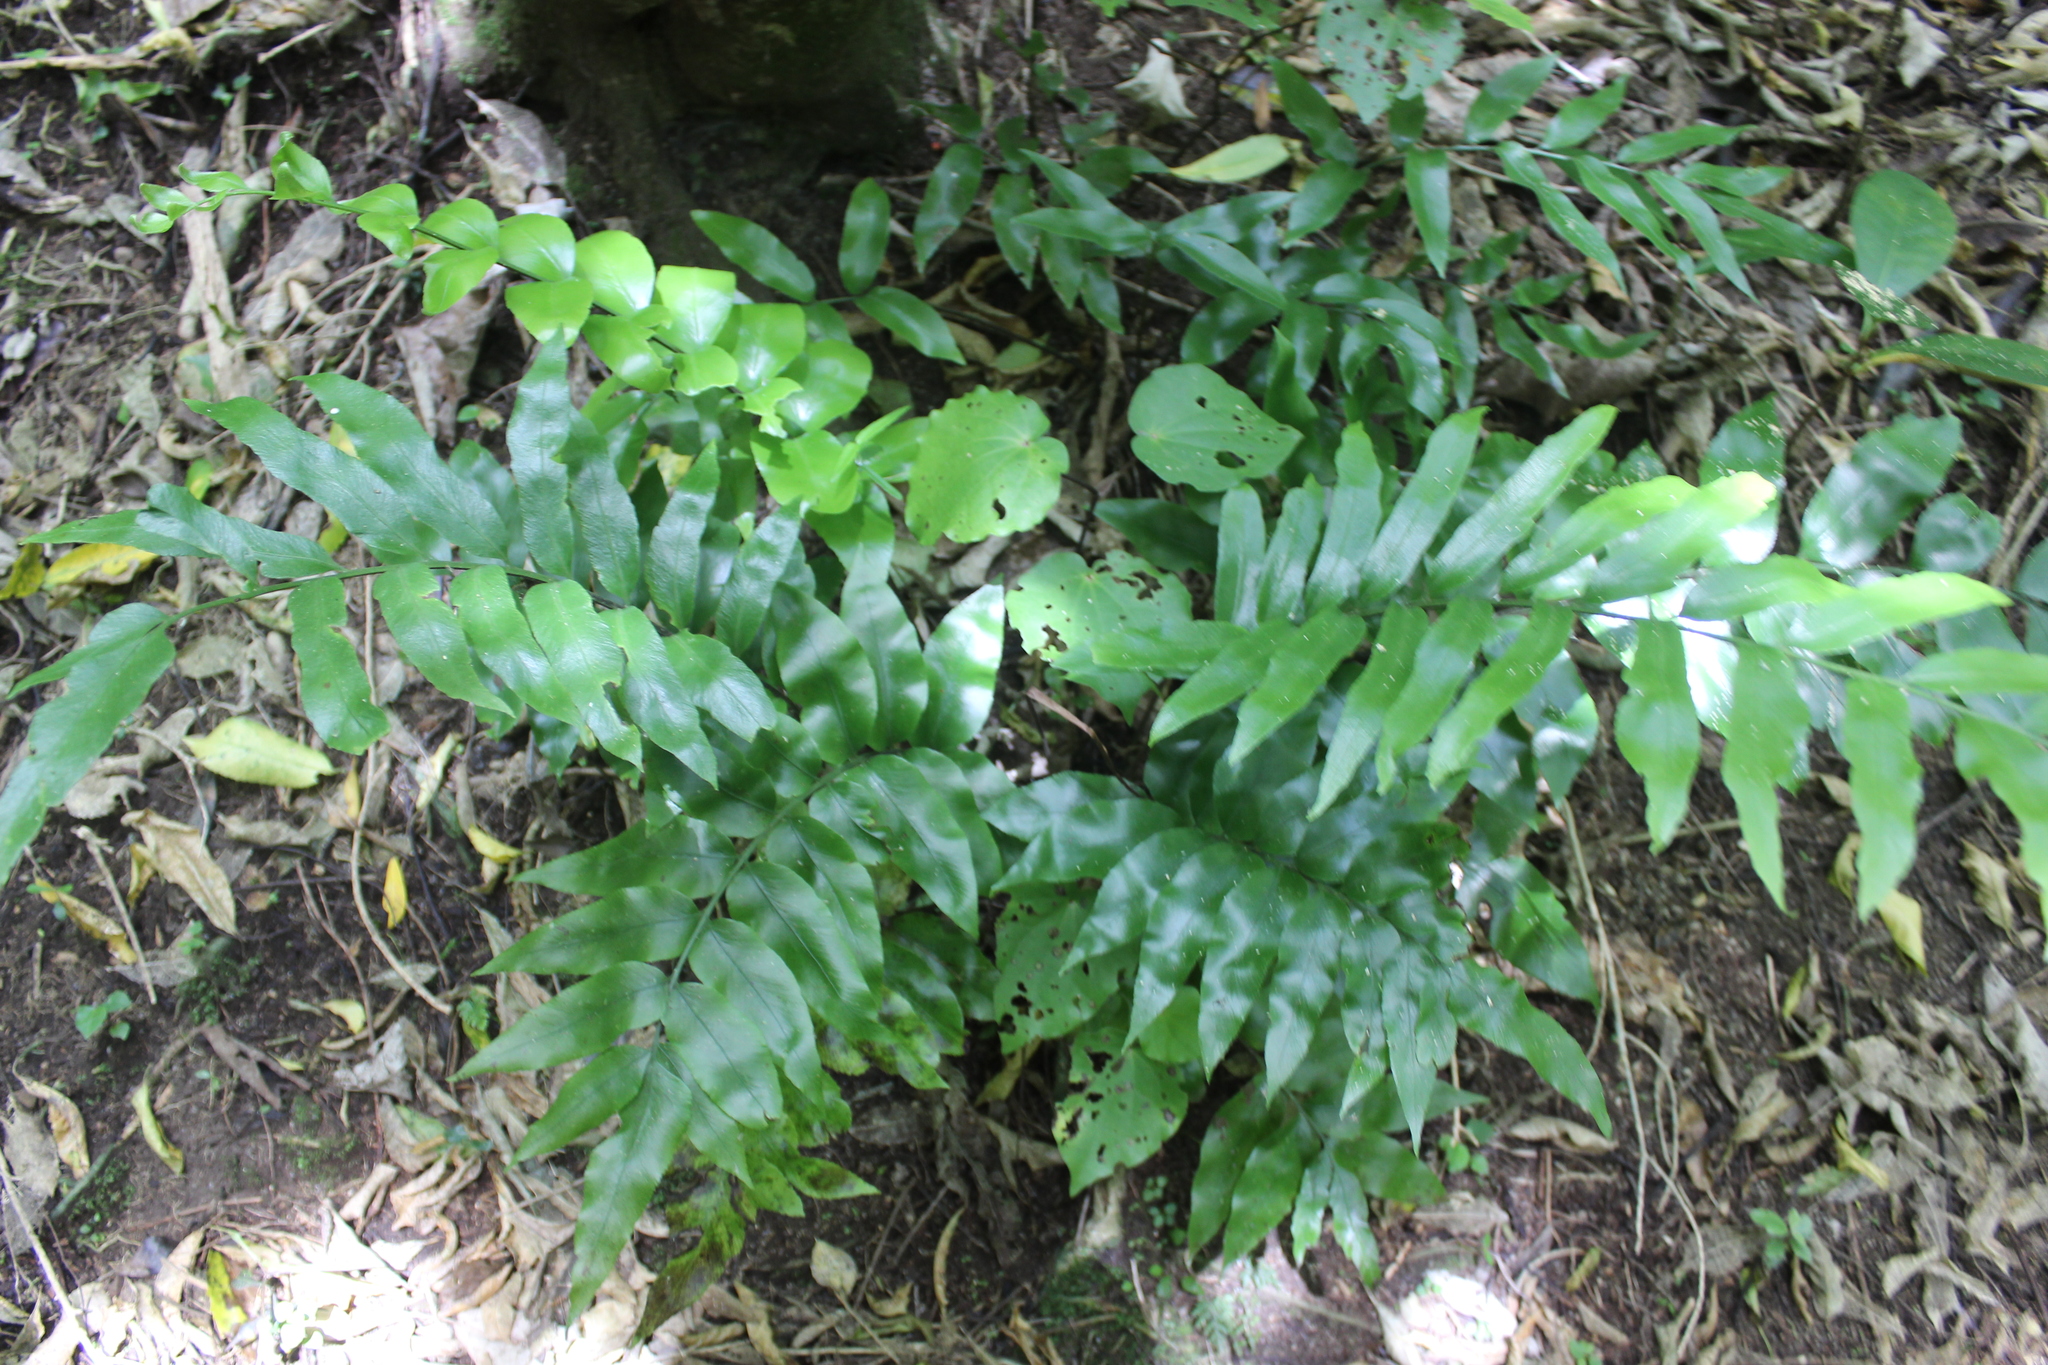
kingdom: Plantae
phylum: Tracheophyta
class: Polypodiopsida
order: Polypodiales
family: Aspleniaceae
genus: Asplenium
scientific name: Asplenium oblongifolium
